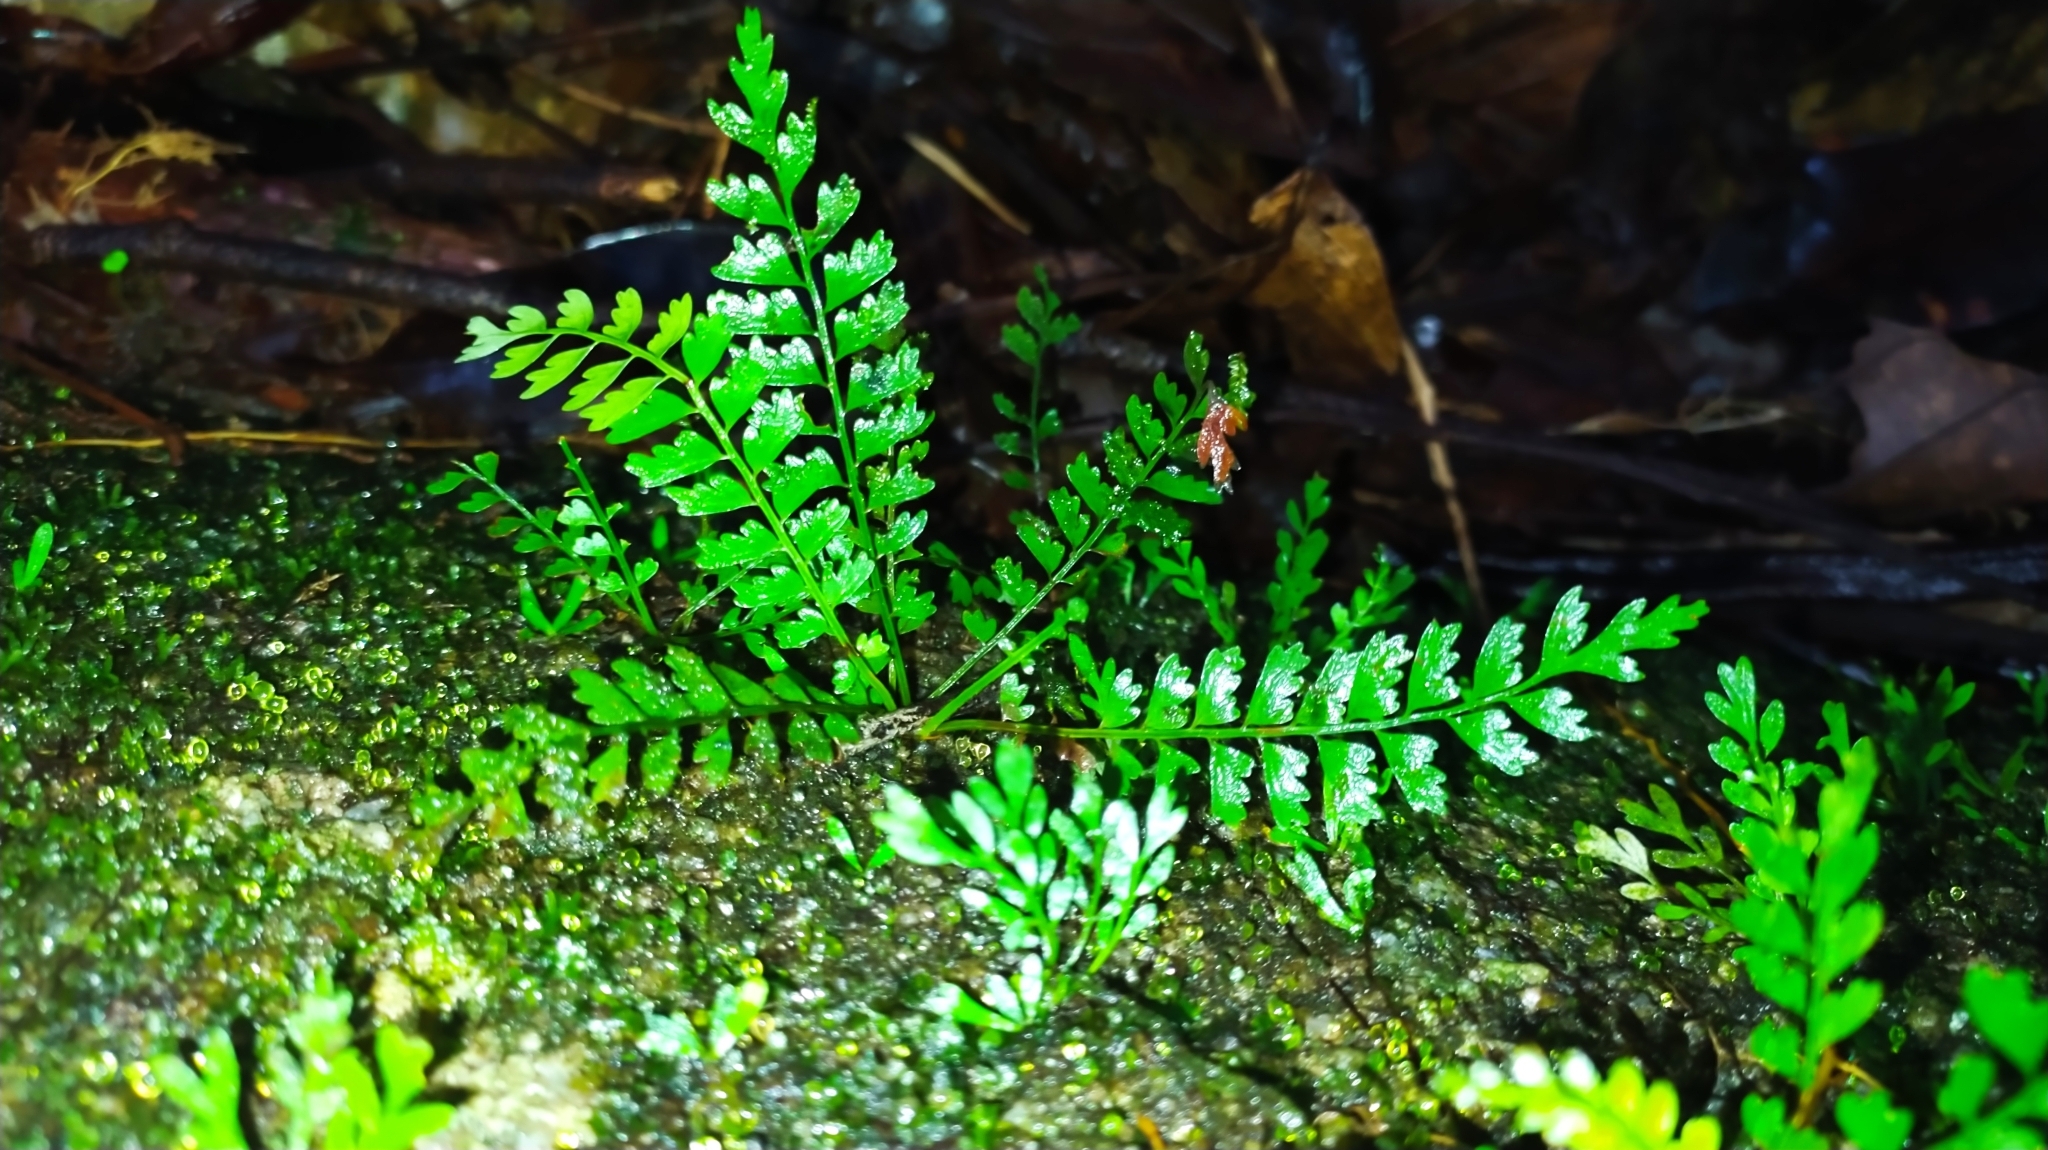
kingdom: Plantae
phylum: Tracheophyta
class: Polypodiopsida
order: Polypodiales
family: Aspleniaceae
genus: Asplenium
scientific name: Asplenium
